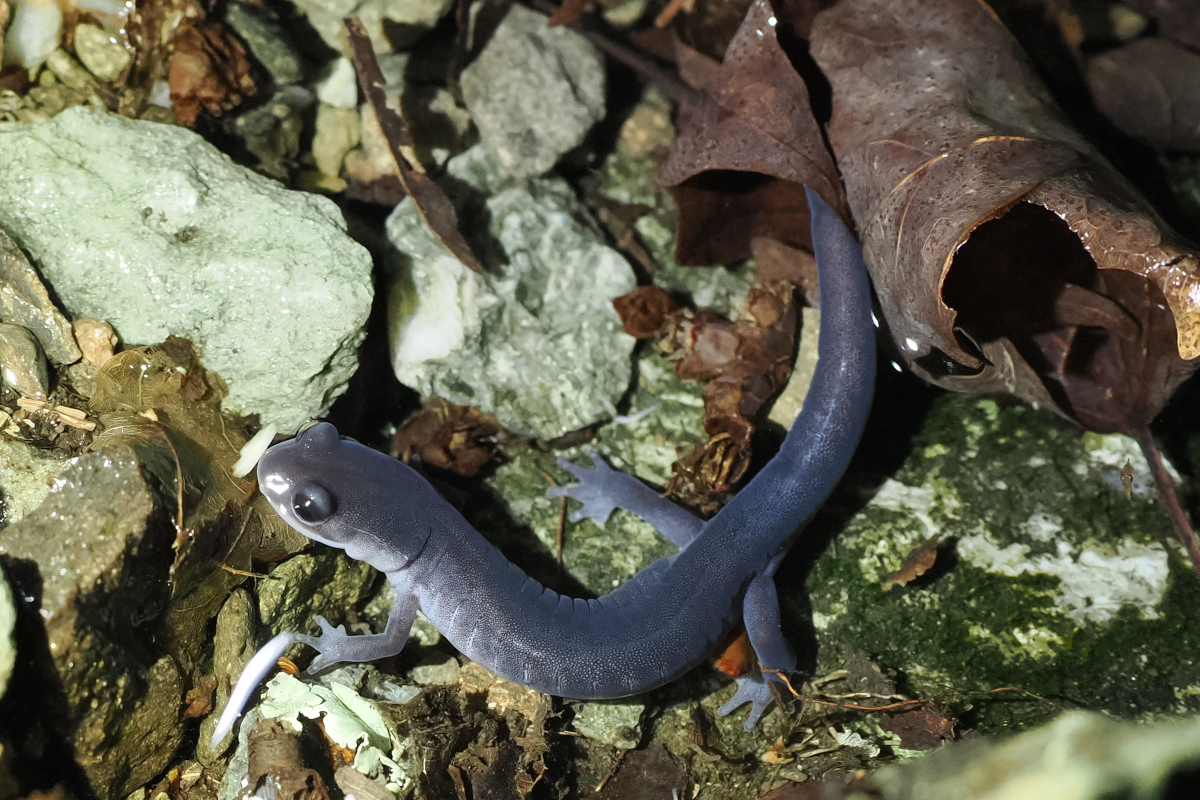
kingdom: Animalia
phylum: Chordata
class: Amphibia
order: Caudata
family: Plethodontidae
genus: Plethodon
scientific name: Plethodon montanus
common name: Northern gray-cheeked salamander
